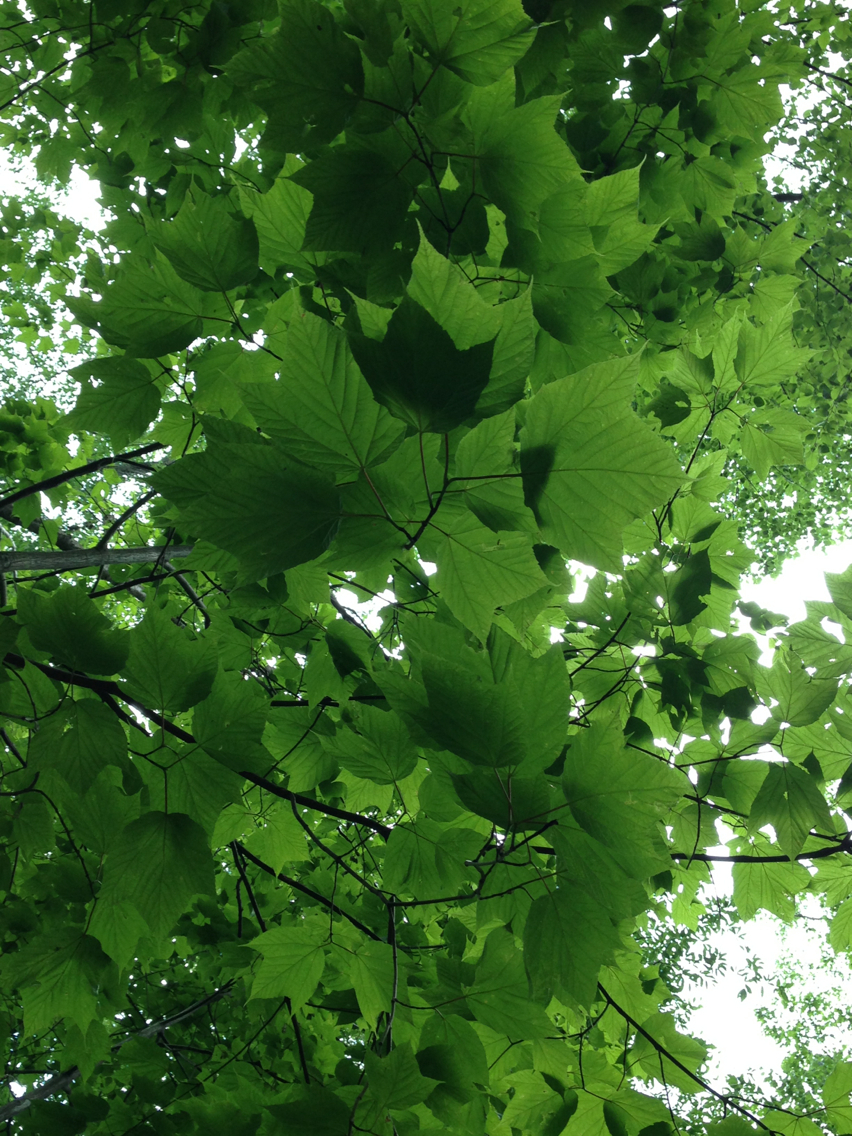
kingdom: Plantae
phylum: Tracheophyta
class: Magnoliopsida
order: Sapindales
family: Sapindaceae
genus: Acer
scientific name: Acer pensylvanicum
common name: Moosewood
